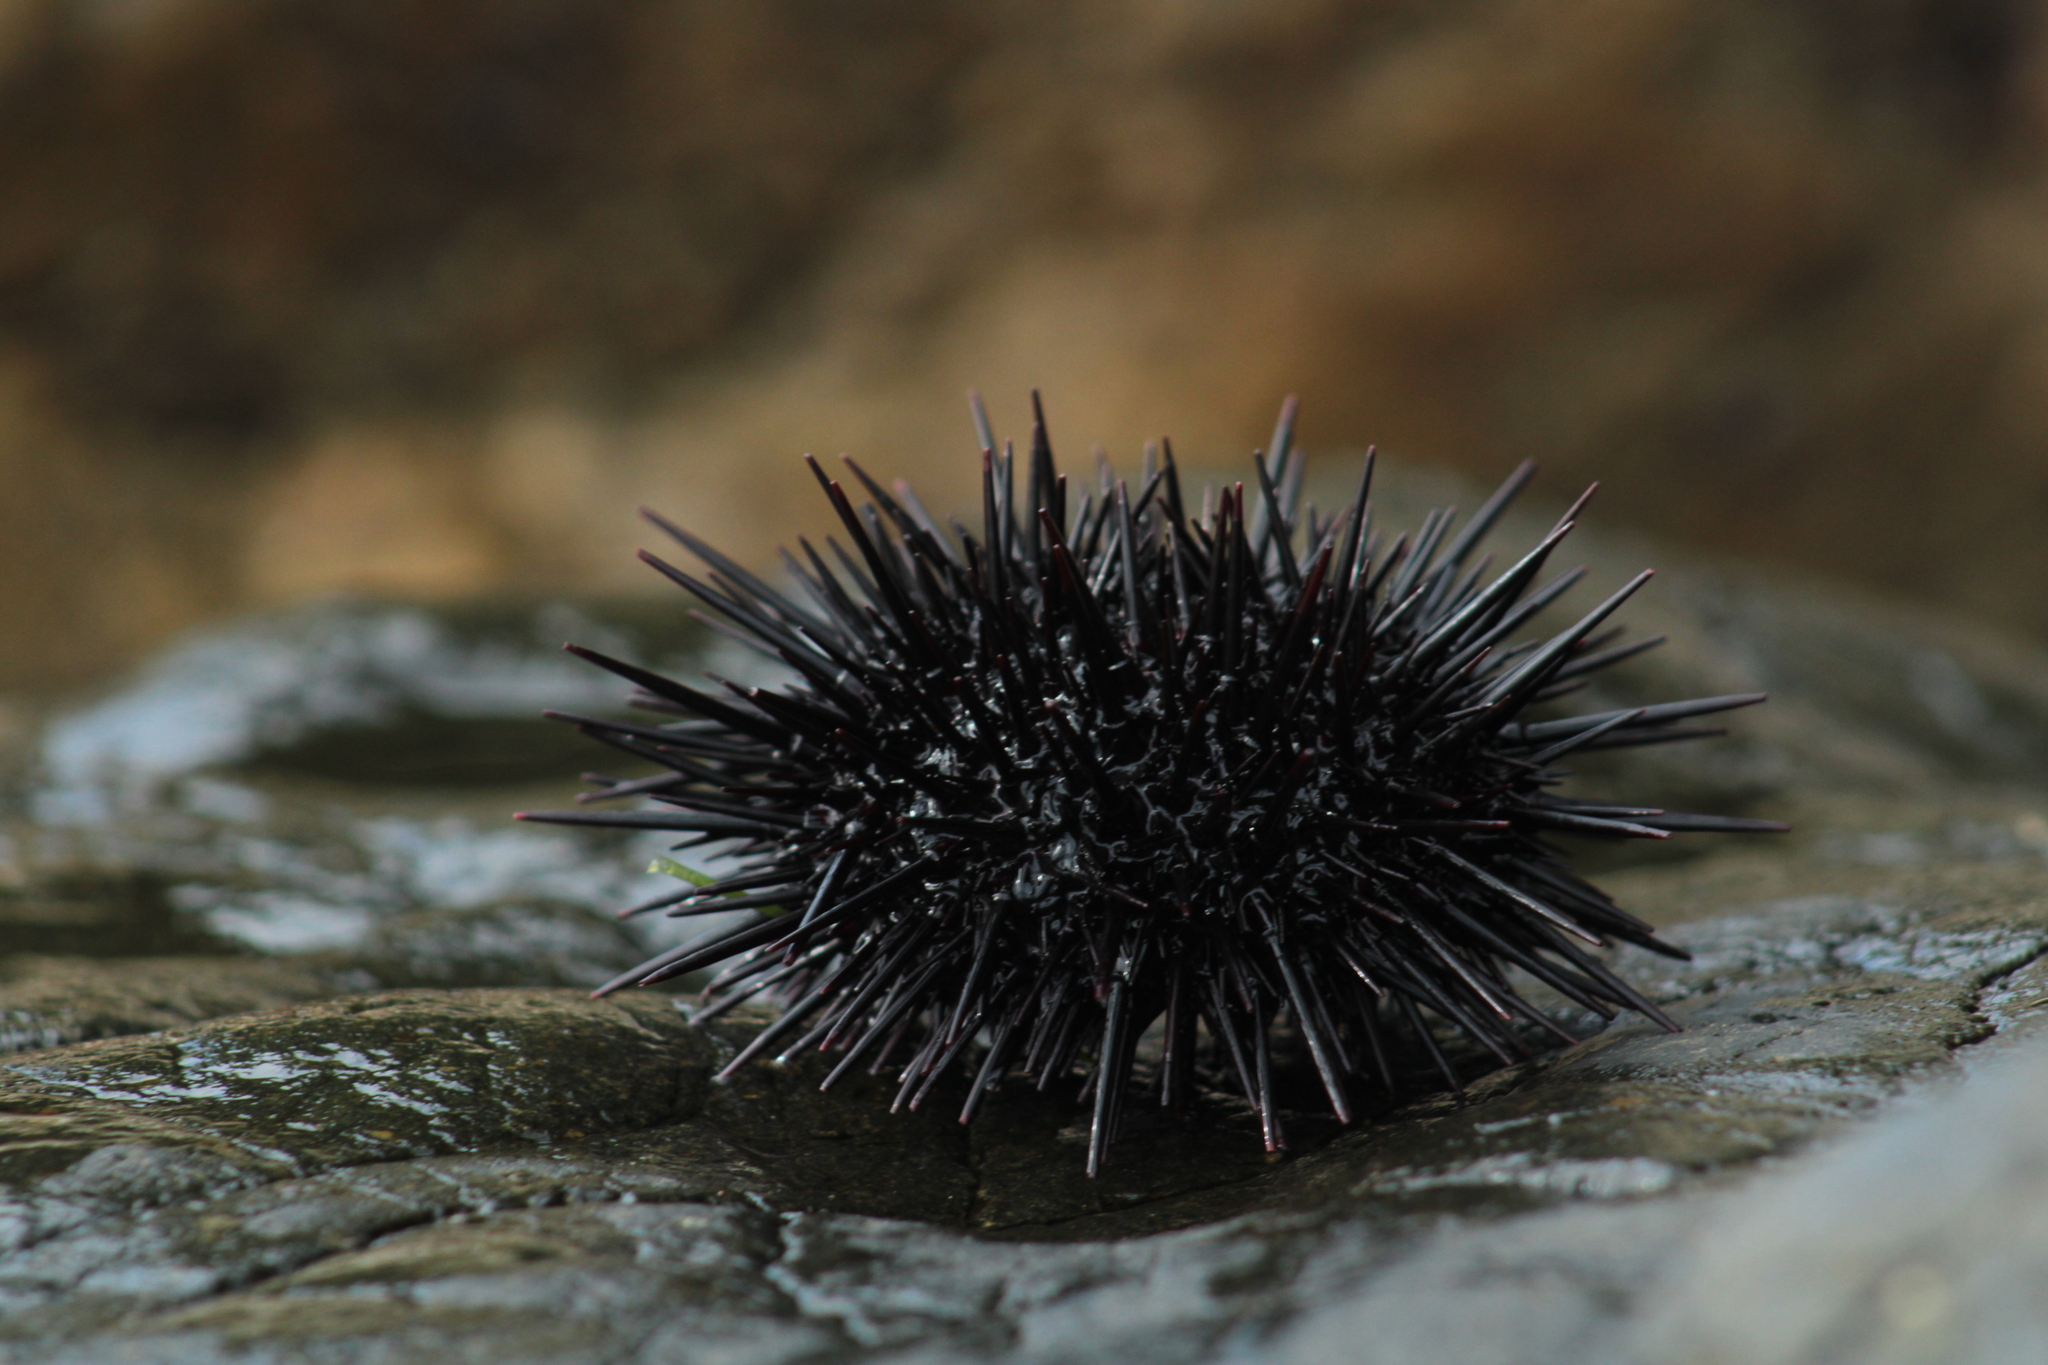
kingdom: Animalia
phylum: Echinodermata
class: Echinoidea
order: Camarodonta
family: Strongylocentrotidae
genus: Mesocentrotus
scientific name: Mesocentrotus nudus
